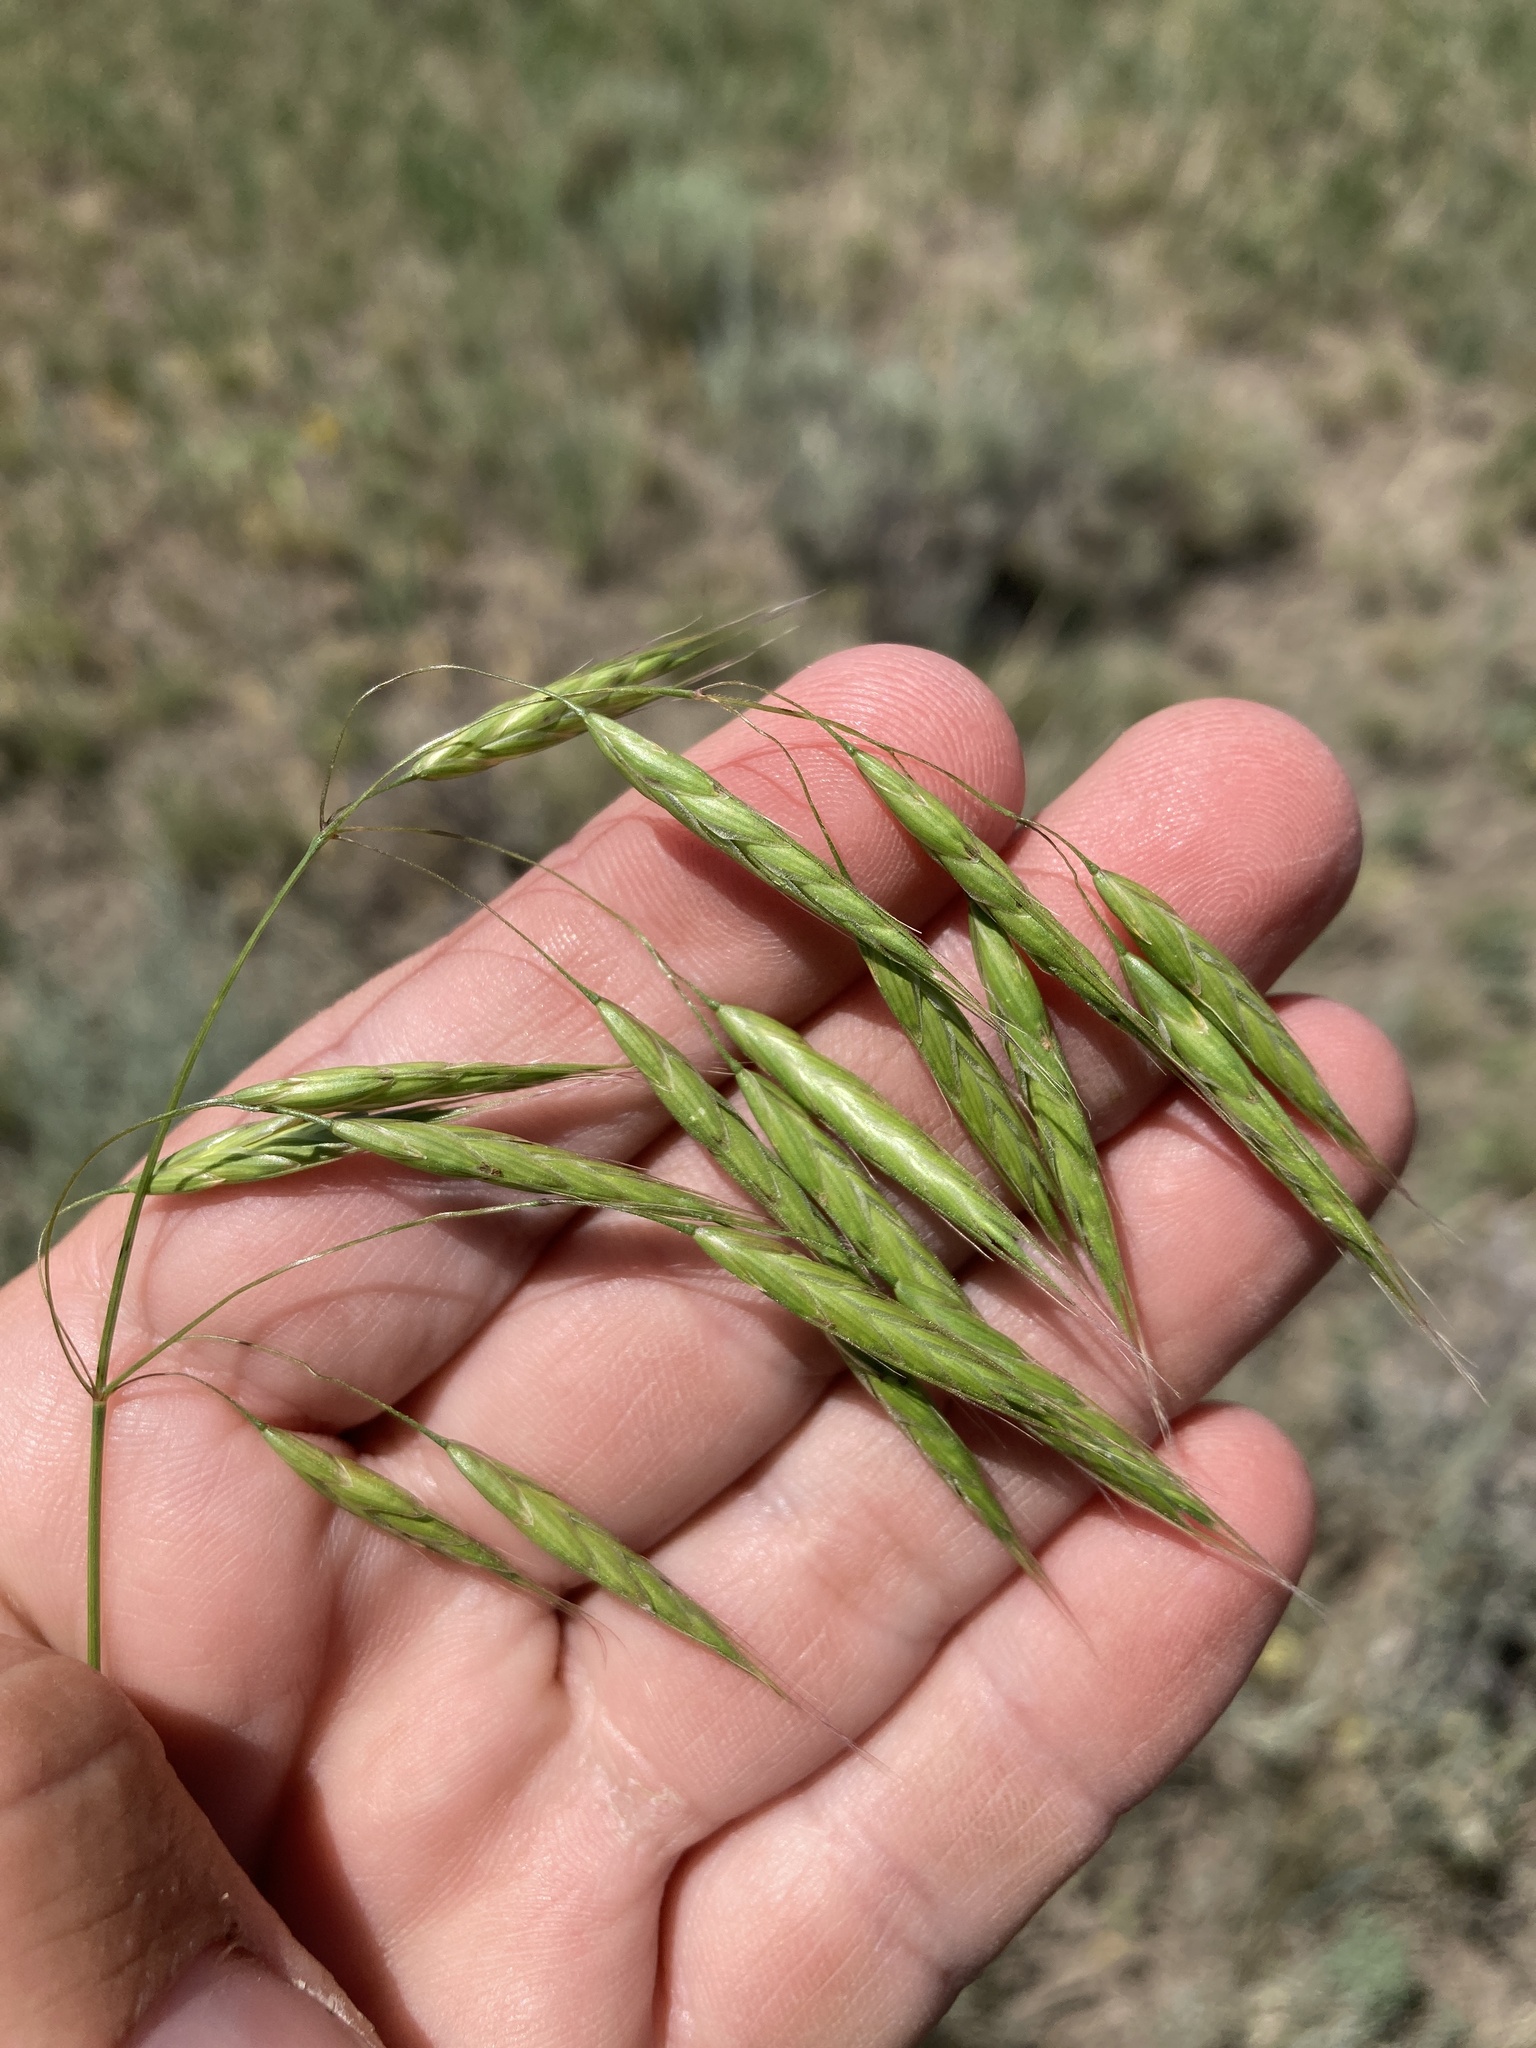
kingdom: Plantae
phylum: Tracheophyta
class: Liliopsida
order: Poales
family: Poaceae
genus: Bromus
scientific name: Bromus japonicus
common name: Japanese brome
